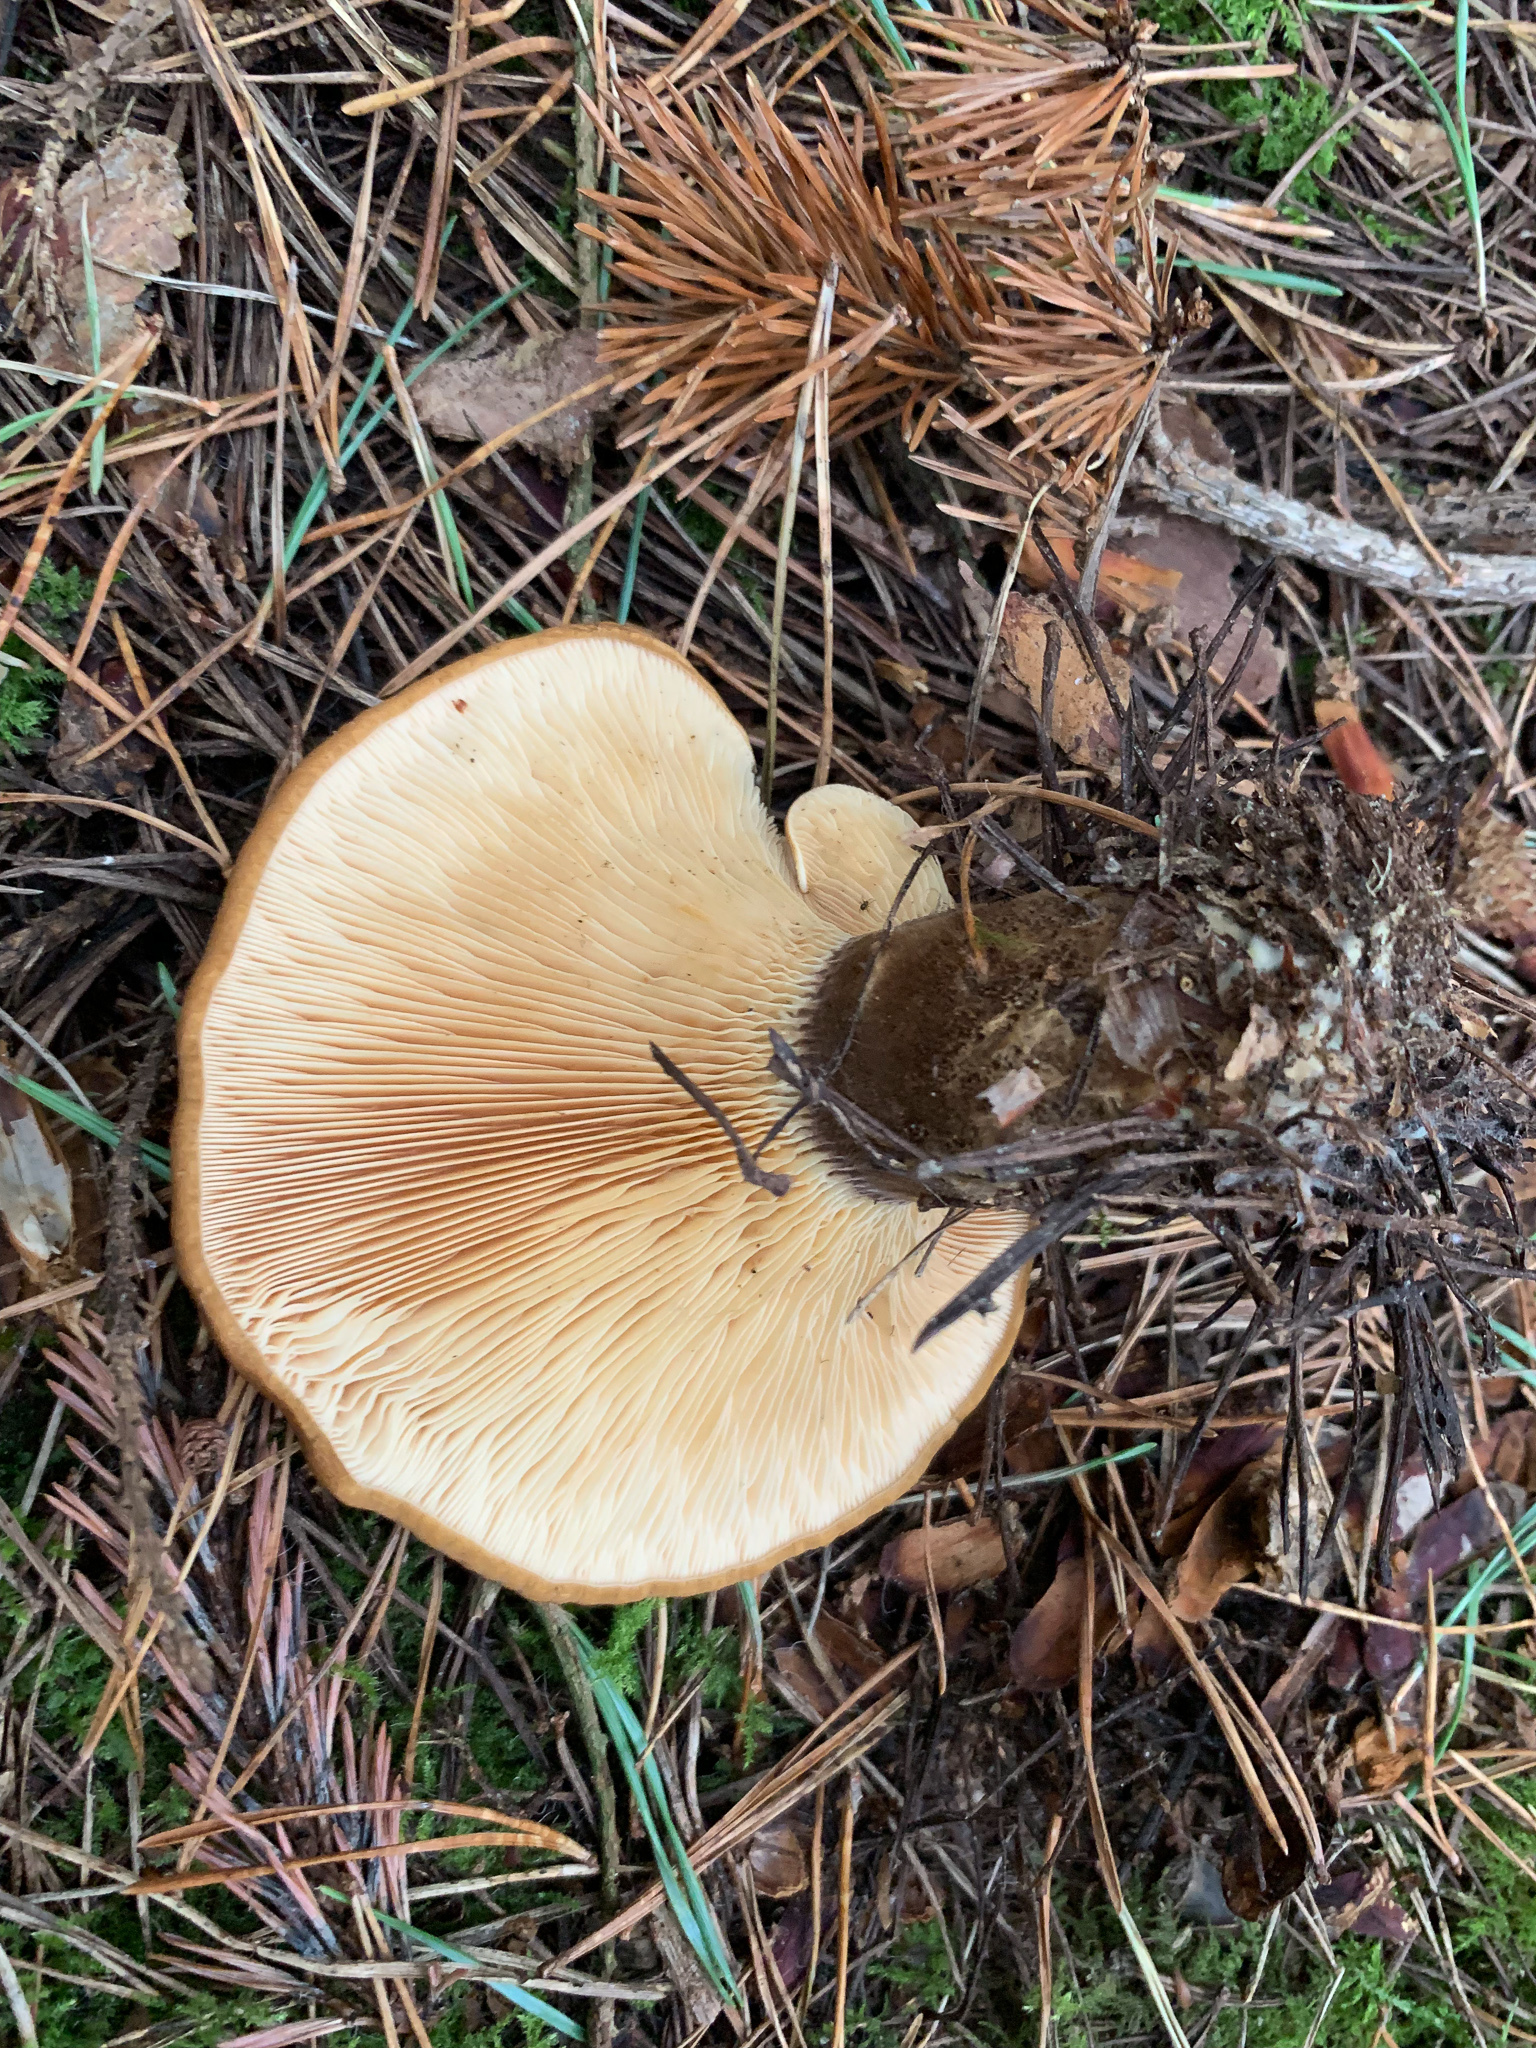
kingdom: Fungi
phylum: Basidiomycota
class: Agaricomycetes
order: Boletales
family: Tapinellaceae
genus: Tapinella
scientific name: Tapinella atrotomentosa
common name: Velvet rollrim
